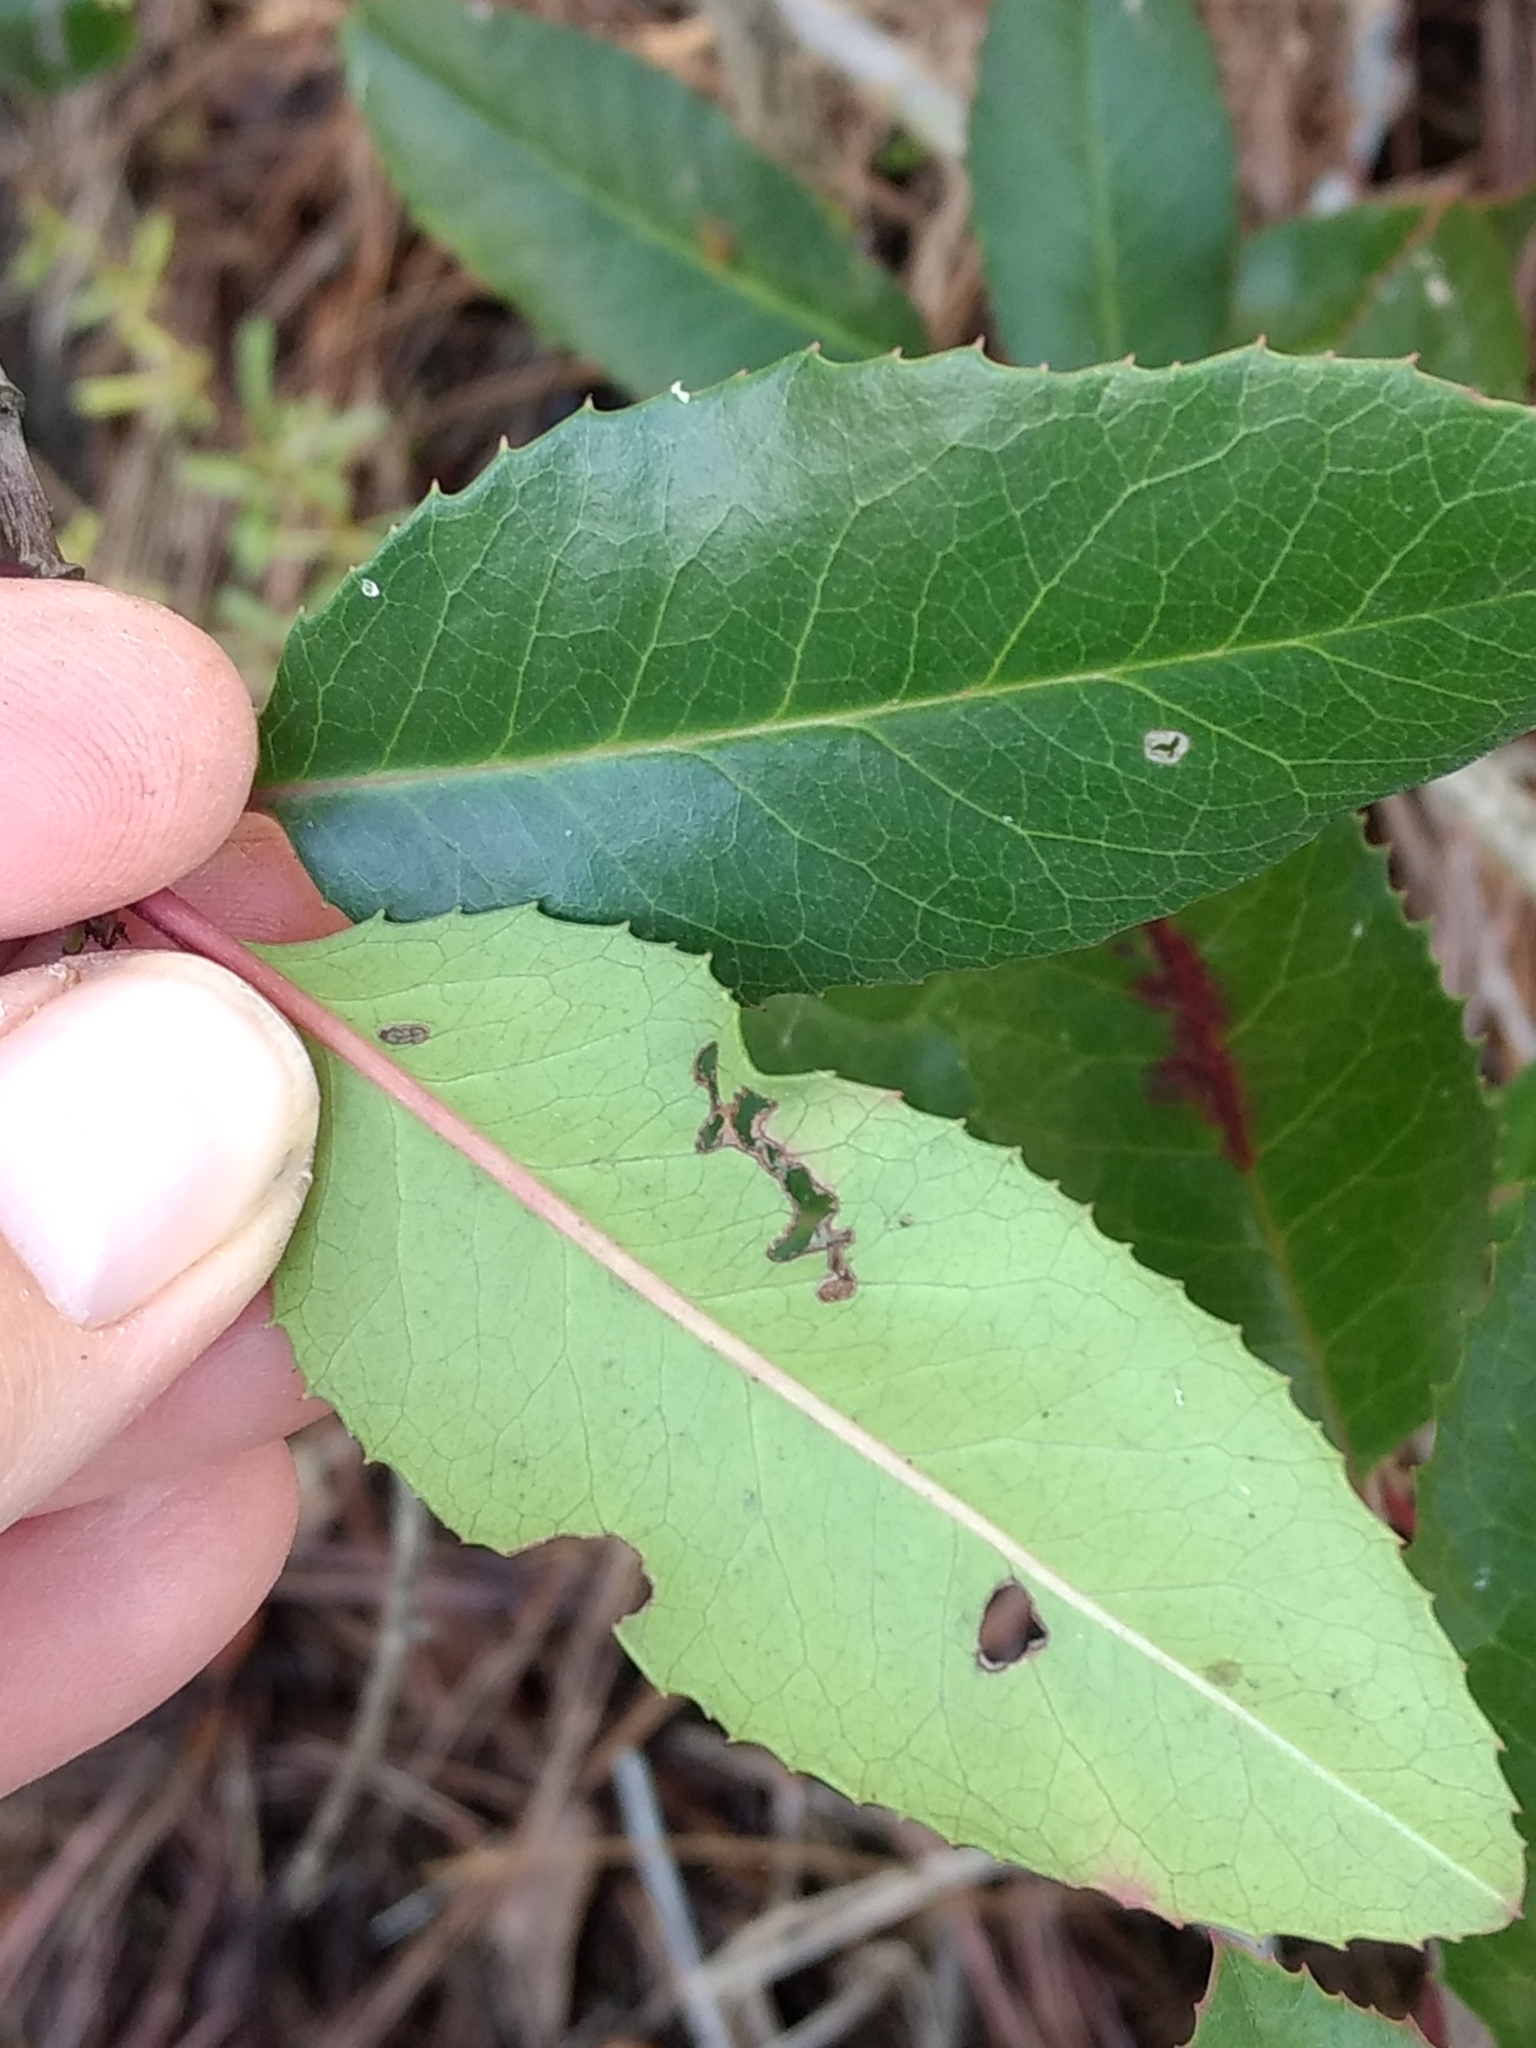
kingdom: Plantae
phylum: Tracheophyta
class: Magnoliopsida
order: Rosales
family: Rosaceae
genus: Heteromeles
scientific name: Heteromeles arbutifolia
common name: California-holly
